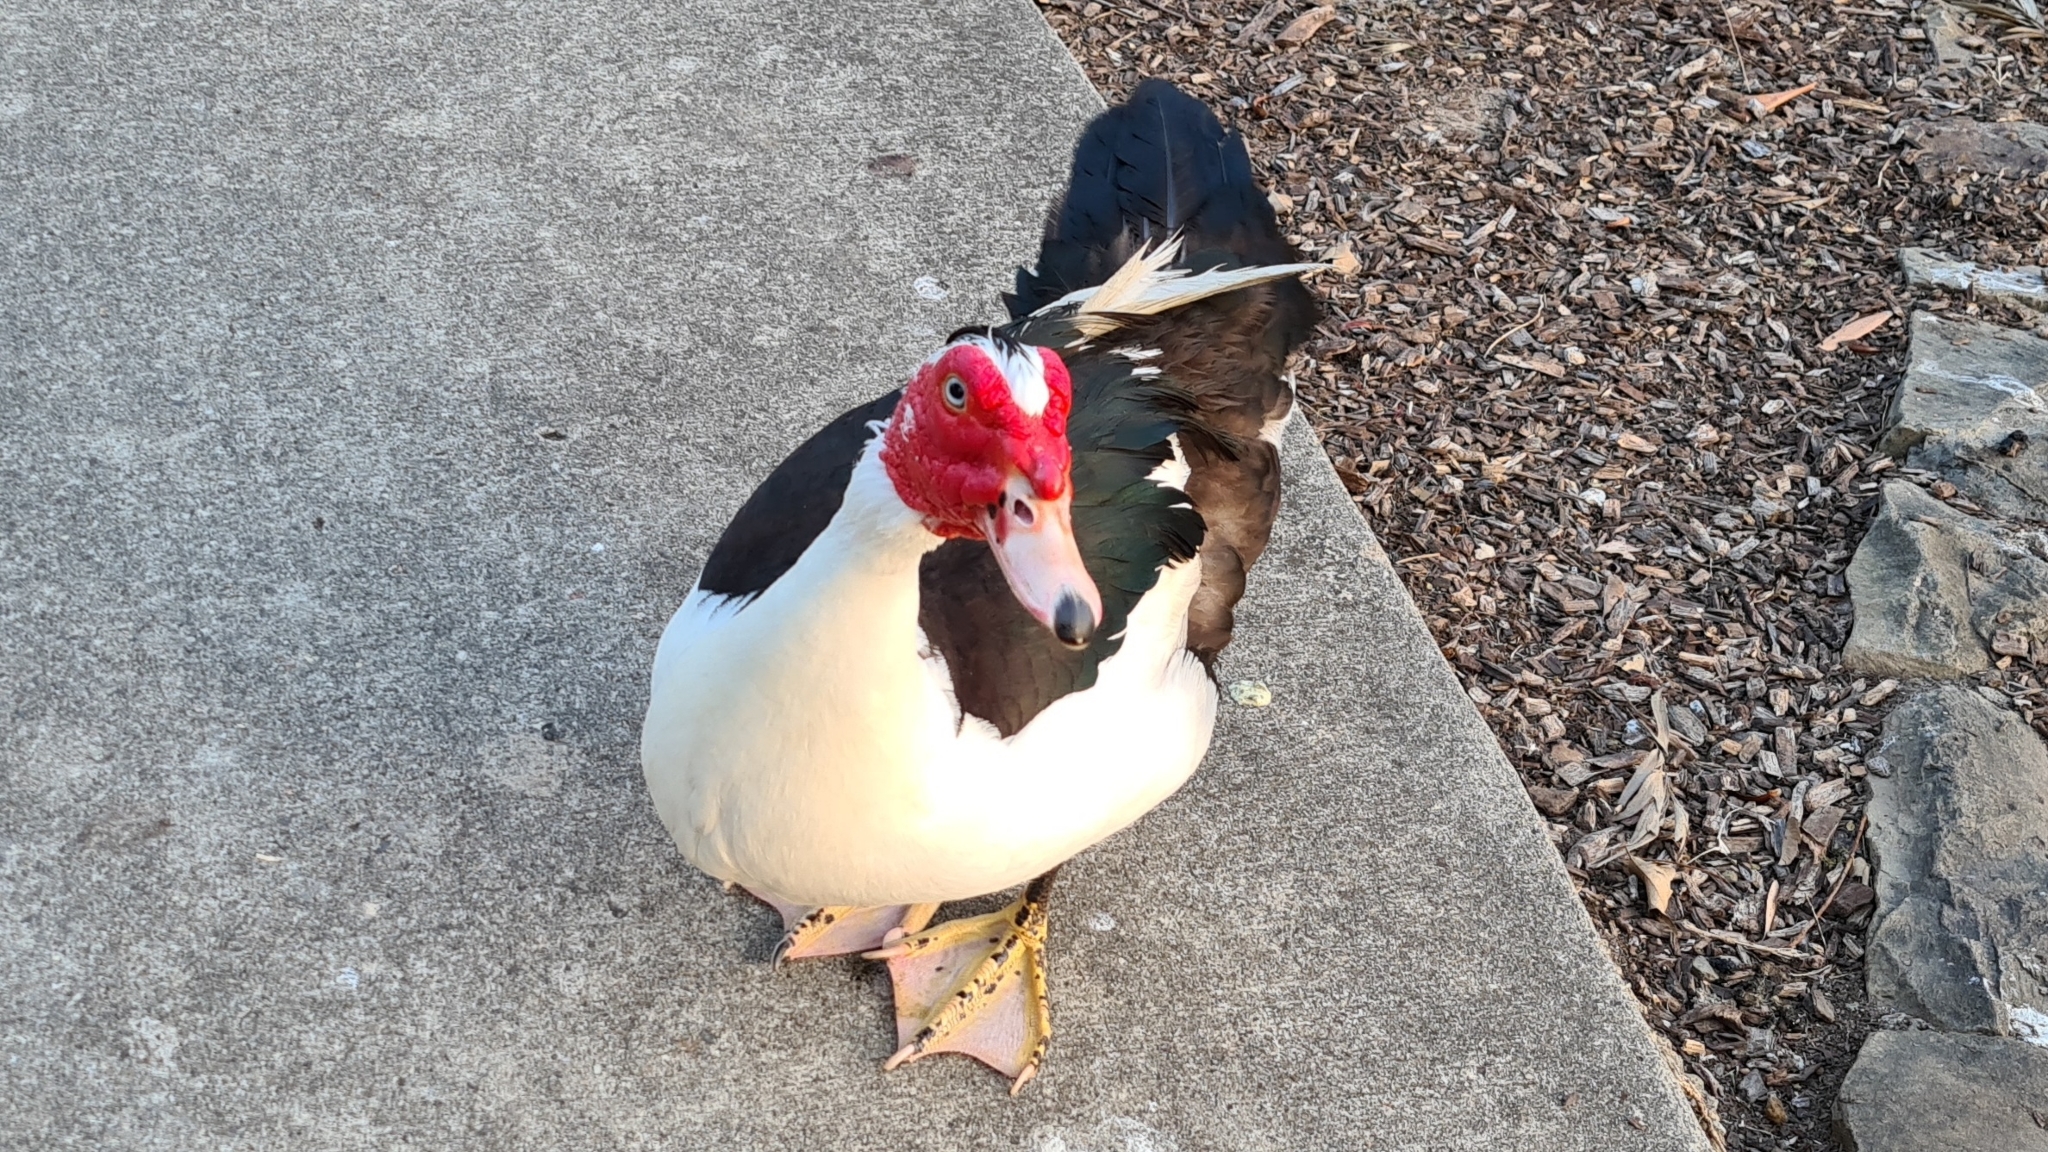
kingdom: Animalia
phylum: Chordata
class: Aves
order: Anseriformes
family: Anatidae
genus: Cairina
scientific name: Cairina moschata
